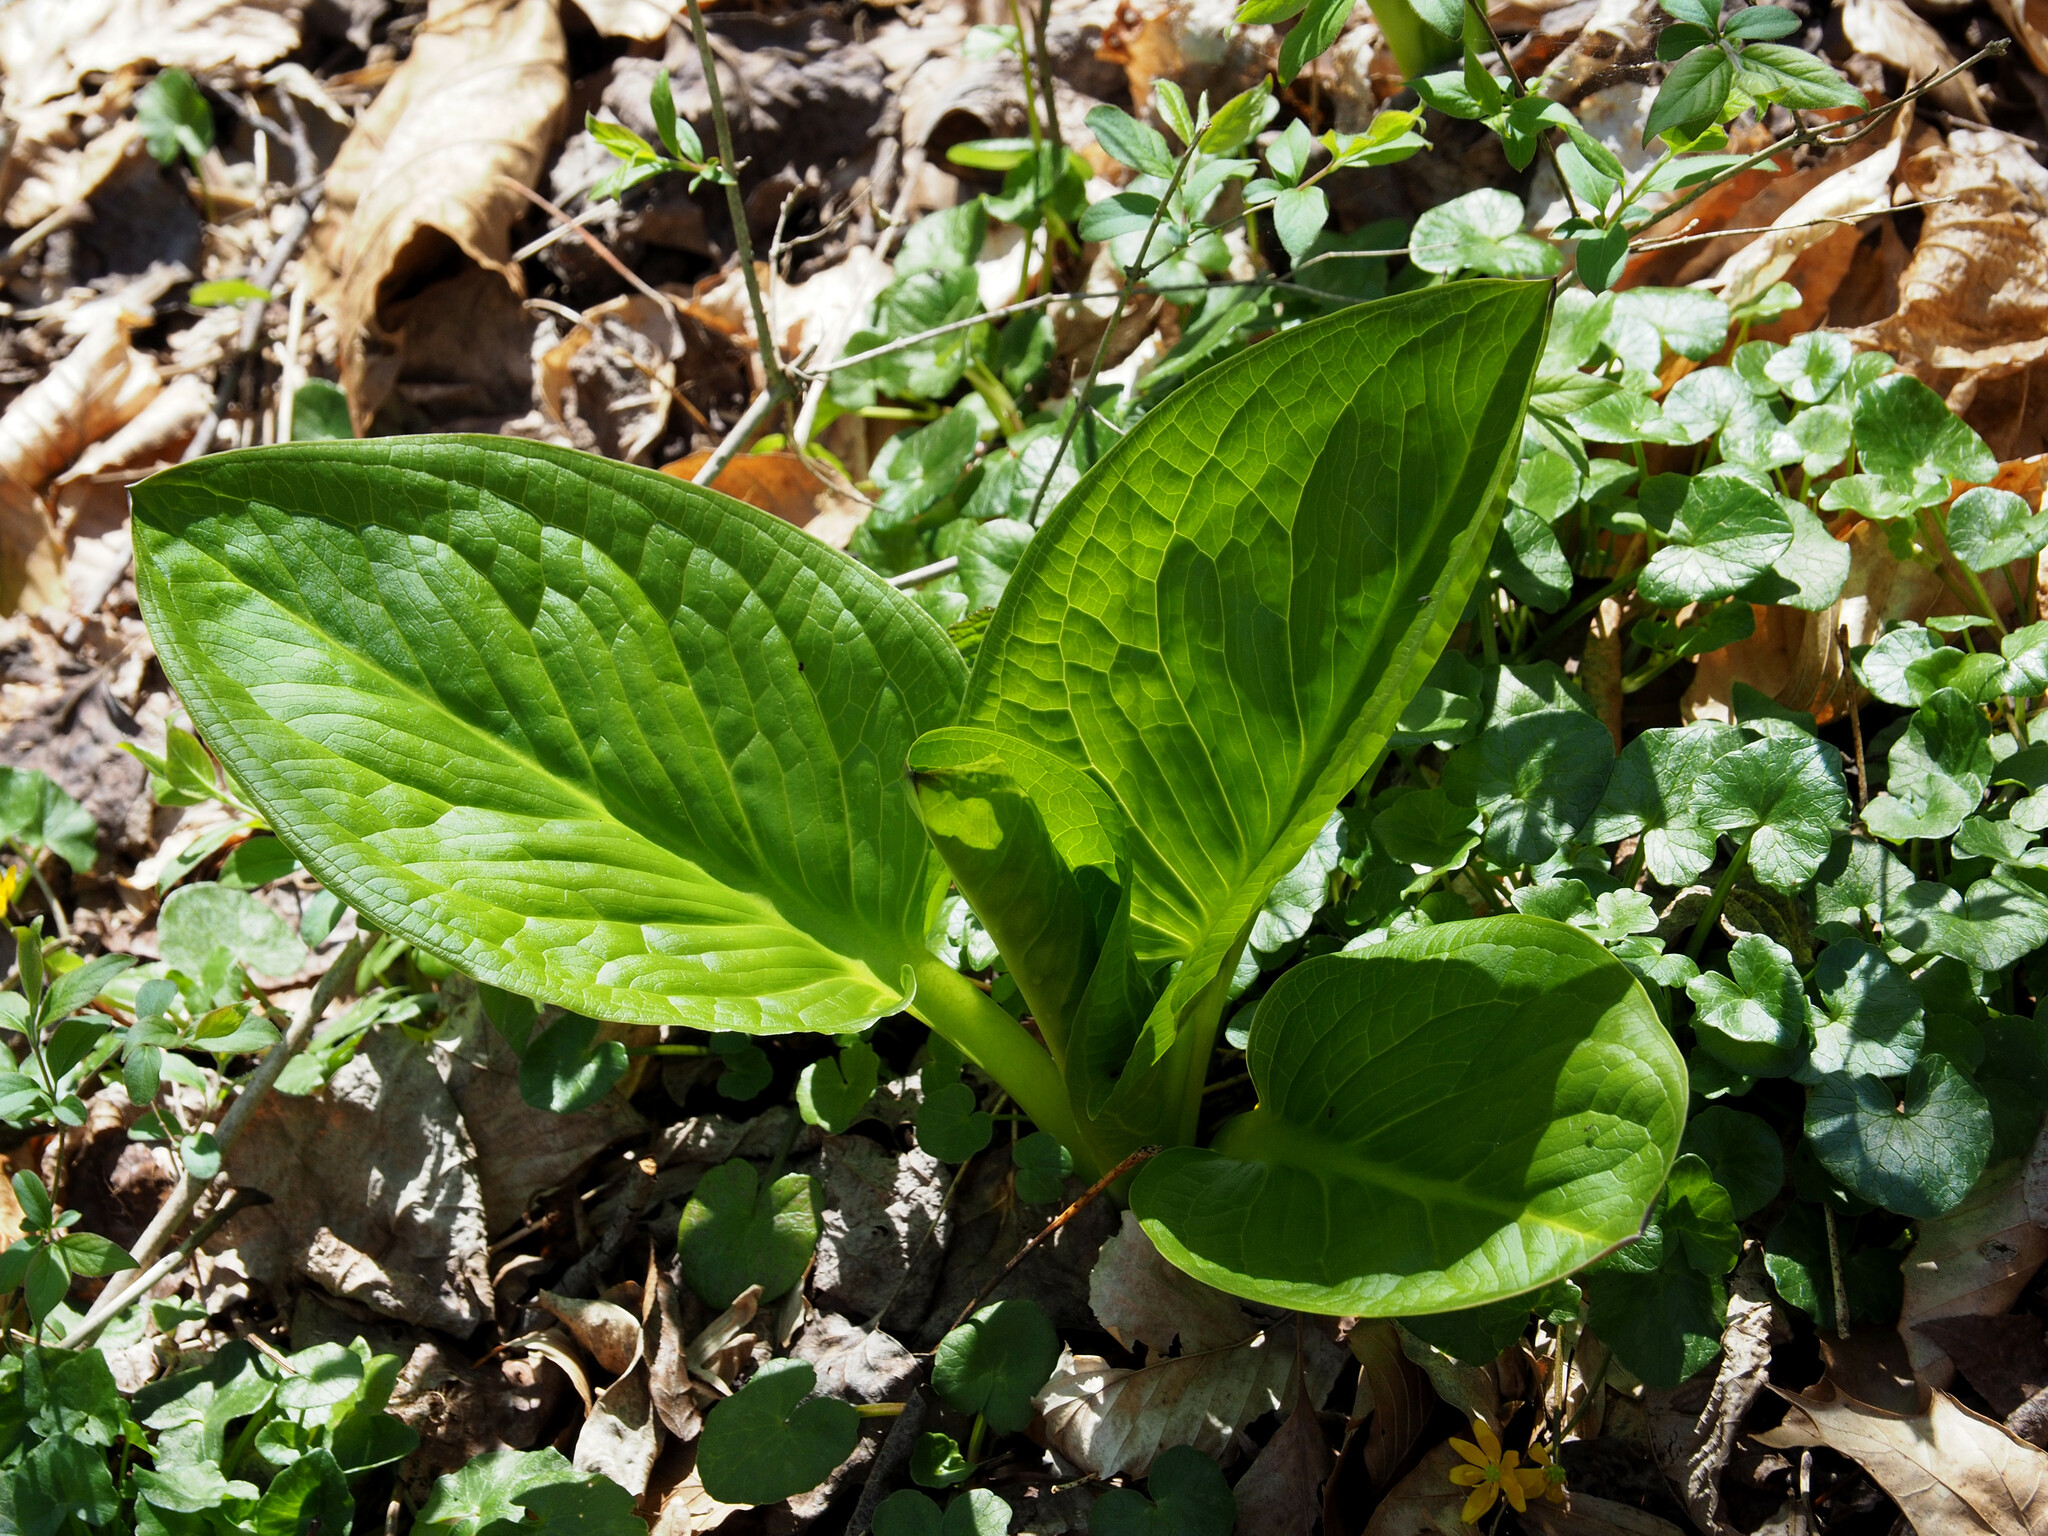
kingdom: Plantae
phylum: Tracheophyta
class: Liliopsida
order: Alismatales
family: Araceae
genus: Symplocarpus
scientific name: Symplocarpus foetidus
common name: Eastern skunk cabbage
